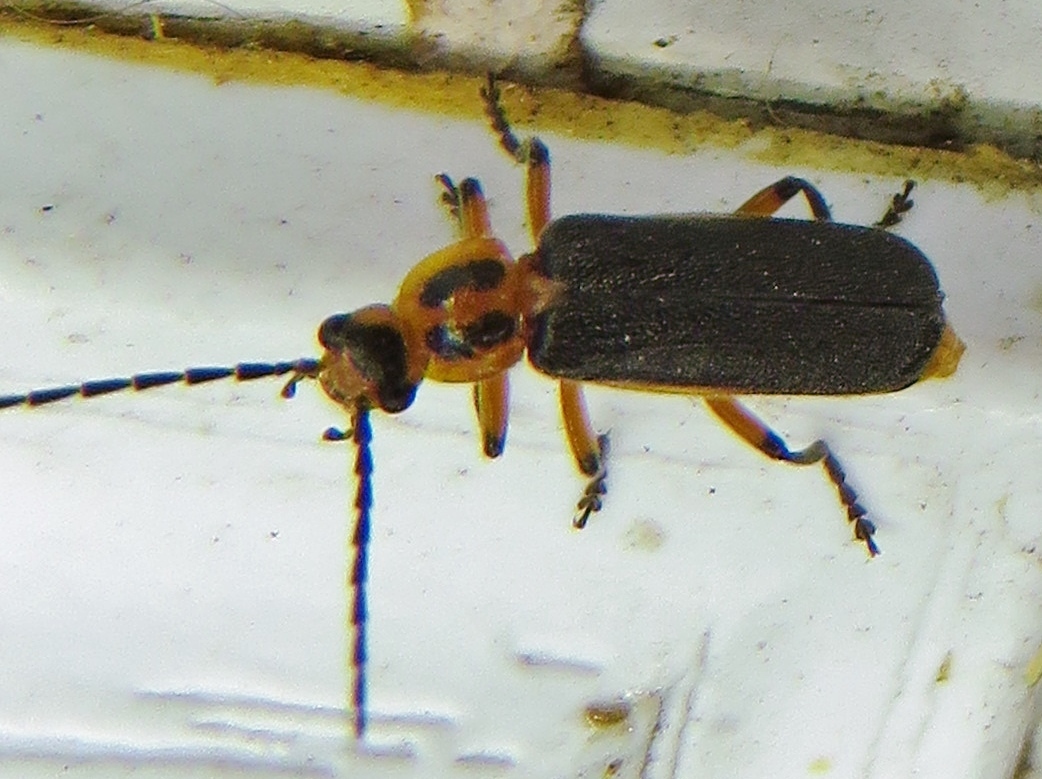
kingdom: Animalia
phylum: Arthropoda
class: Insecta
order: Coleoptera
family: Cantharidae
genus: Atalantycha
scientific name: Atalantycha bilineata
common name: Two-lined leatherwing
